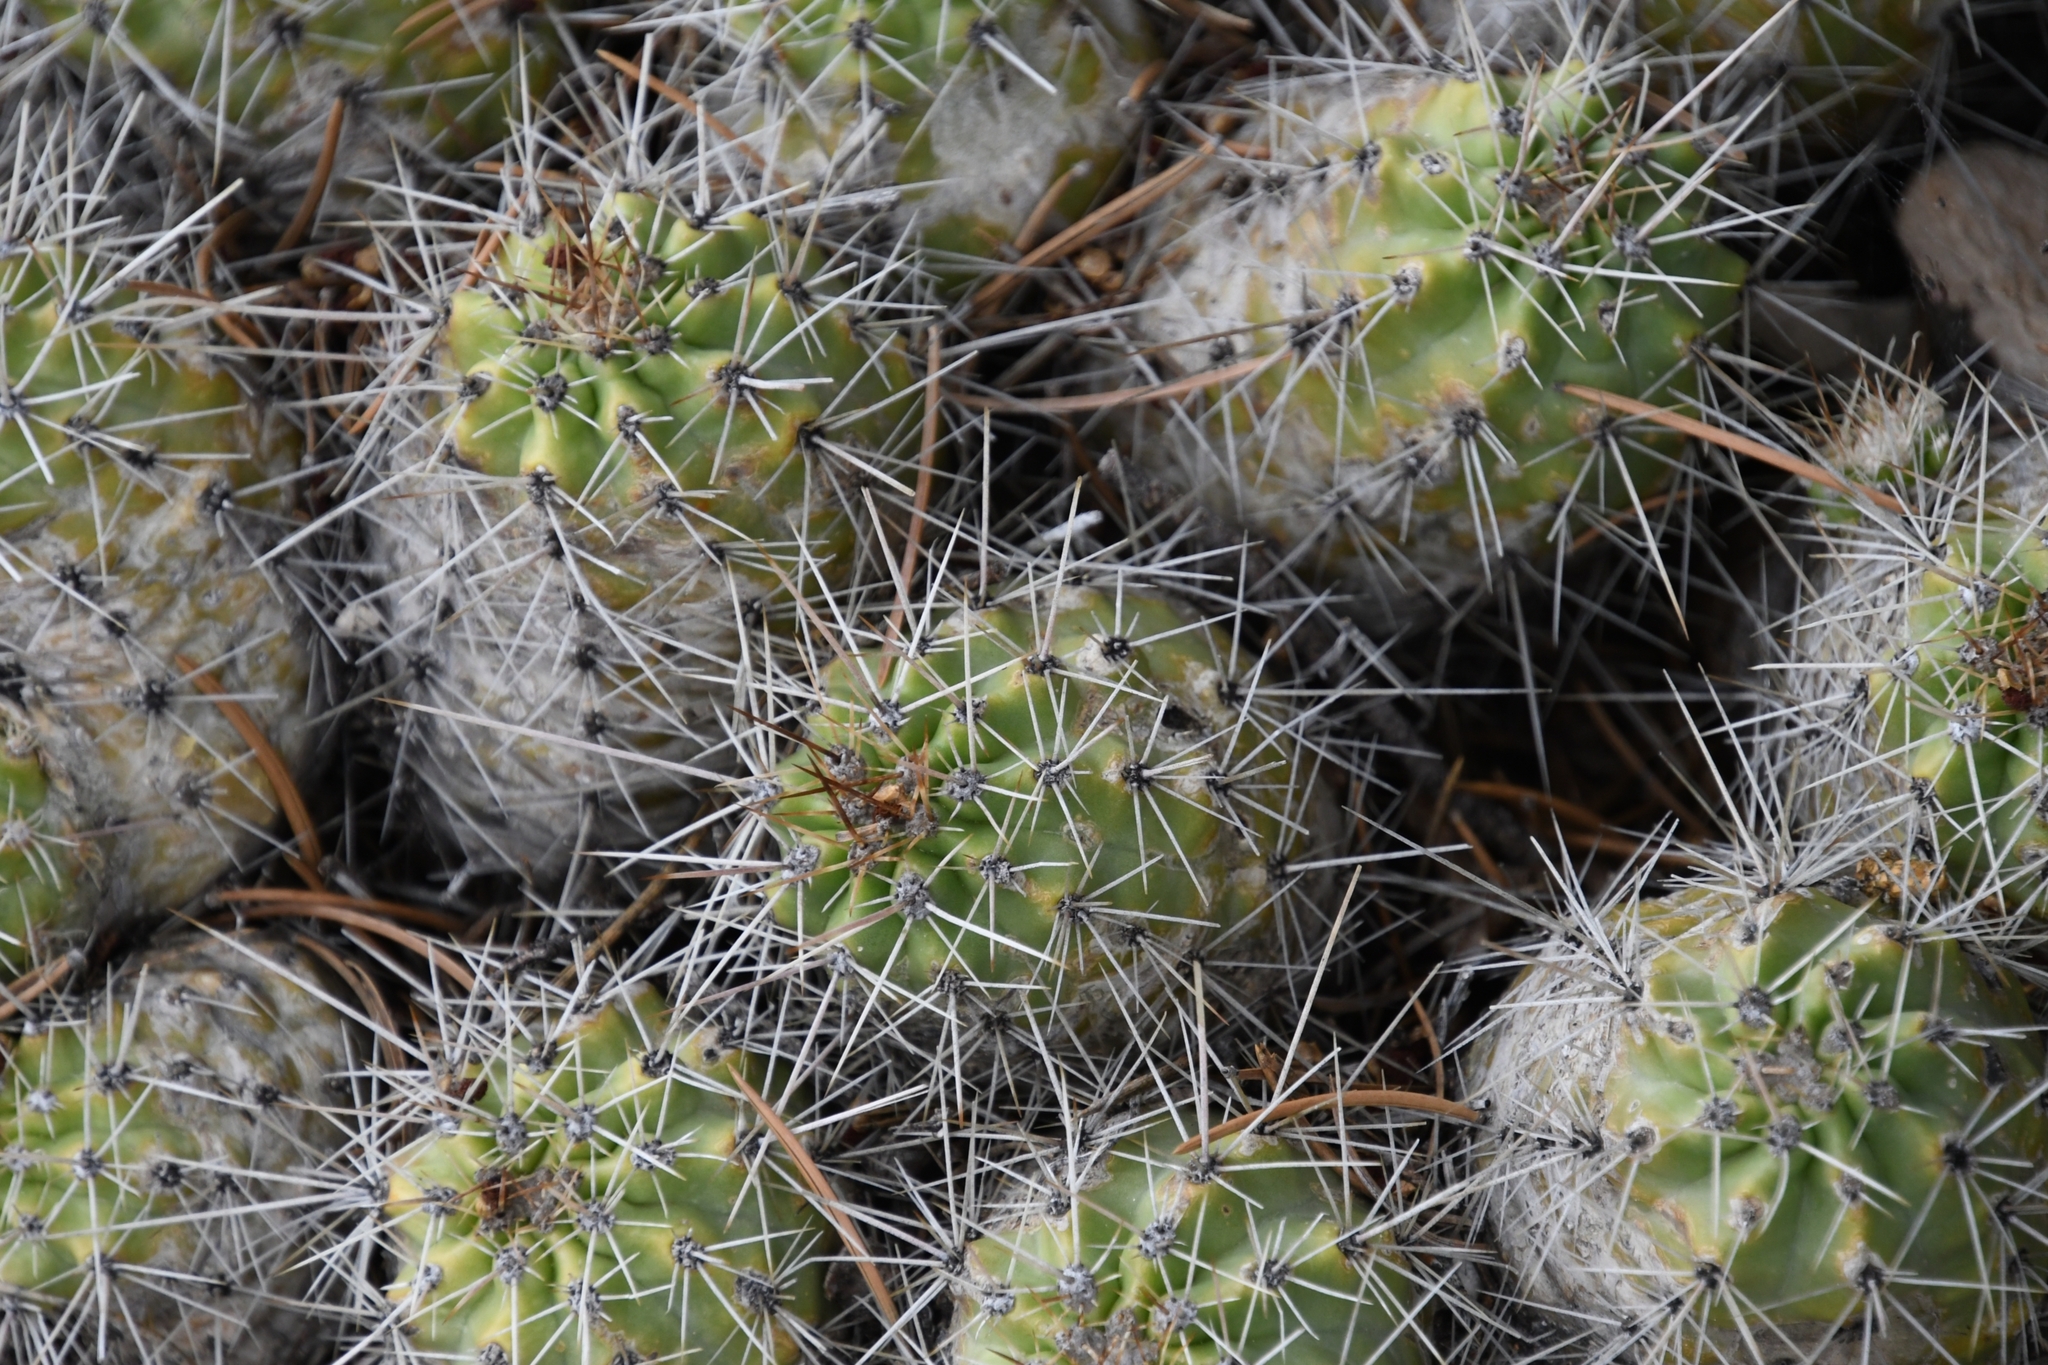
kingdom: Plantae
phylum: Tracheophyta
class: Magnoliopsida
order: Caryophyllales
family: Cactaceae
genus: Echinocereus
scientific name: Echinocereus bakeri
